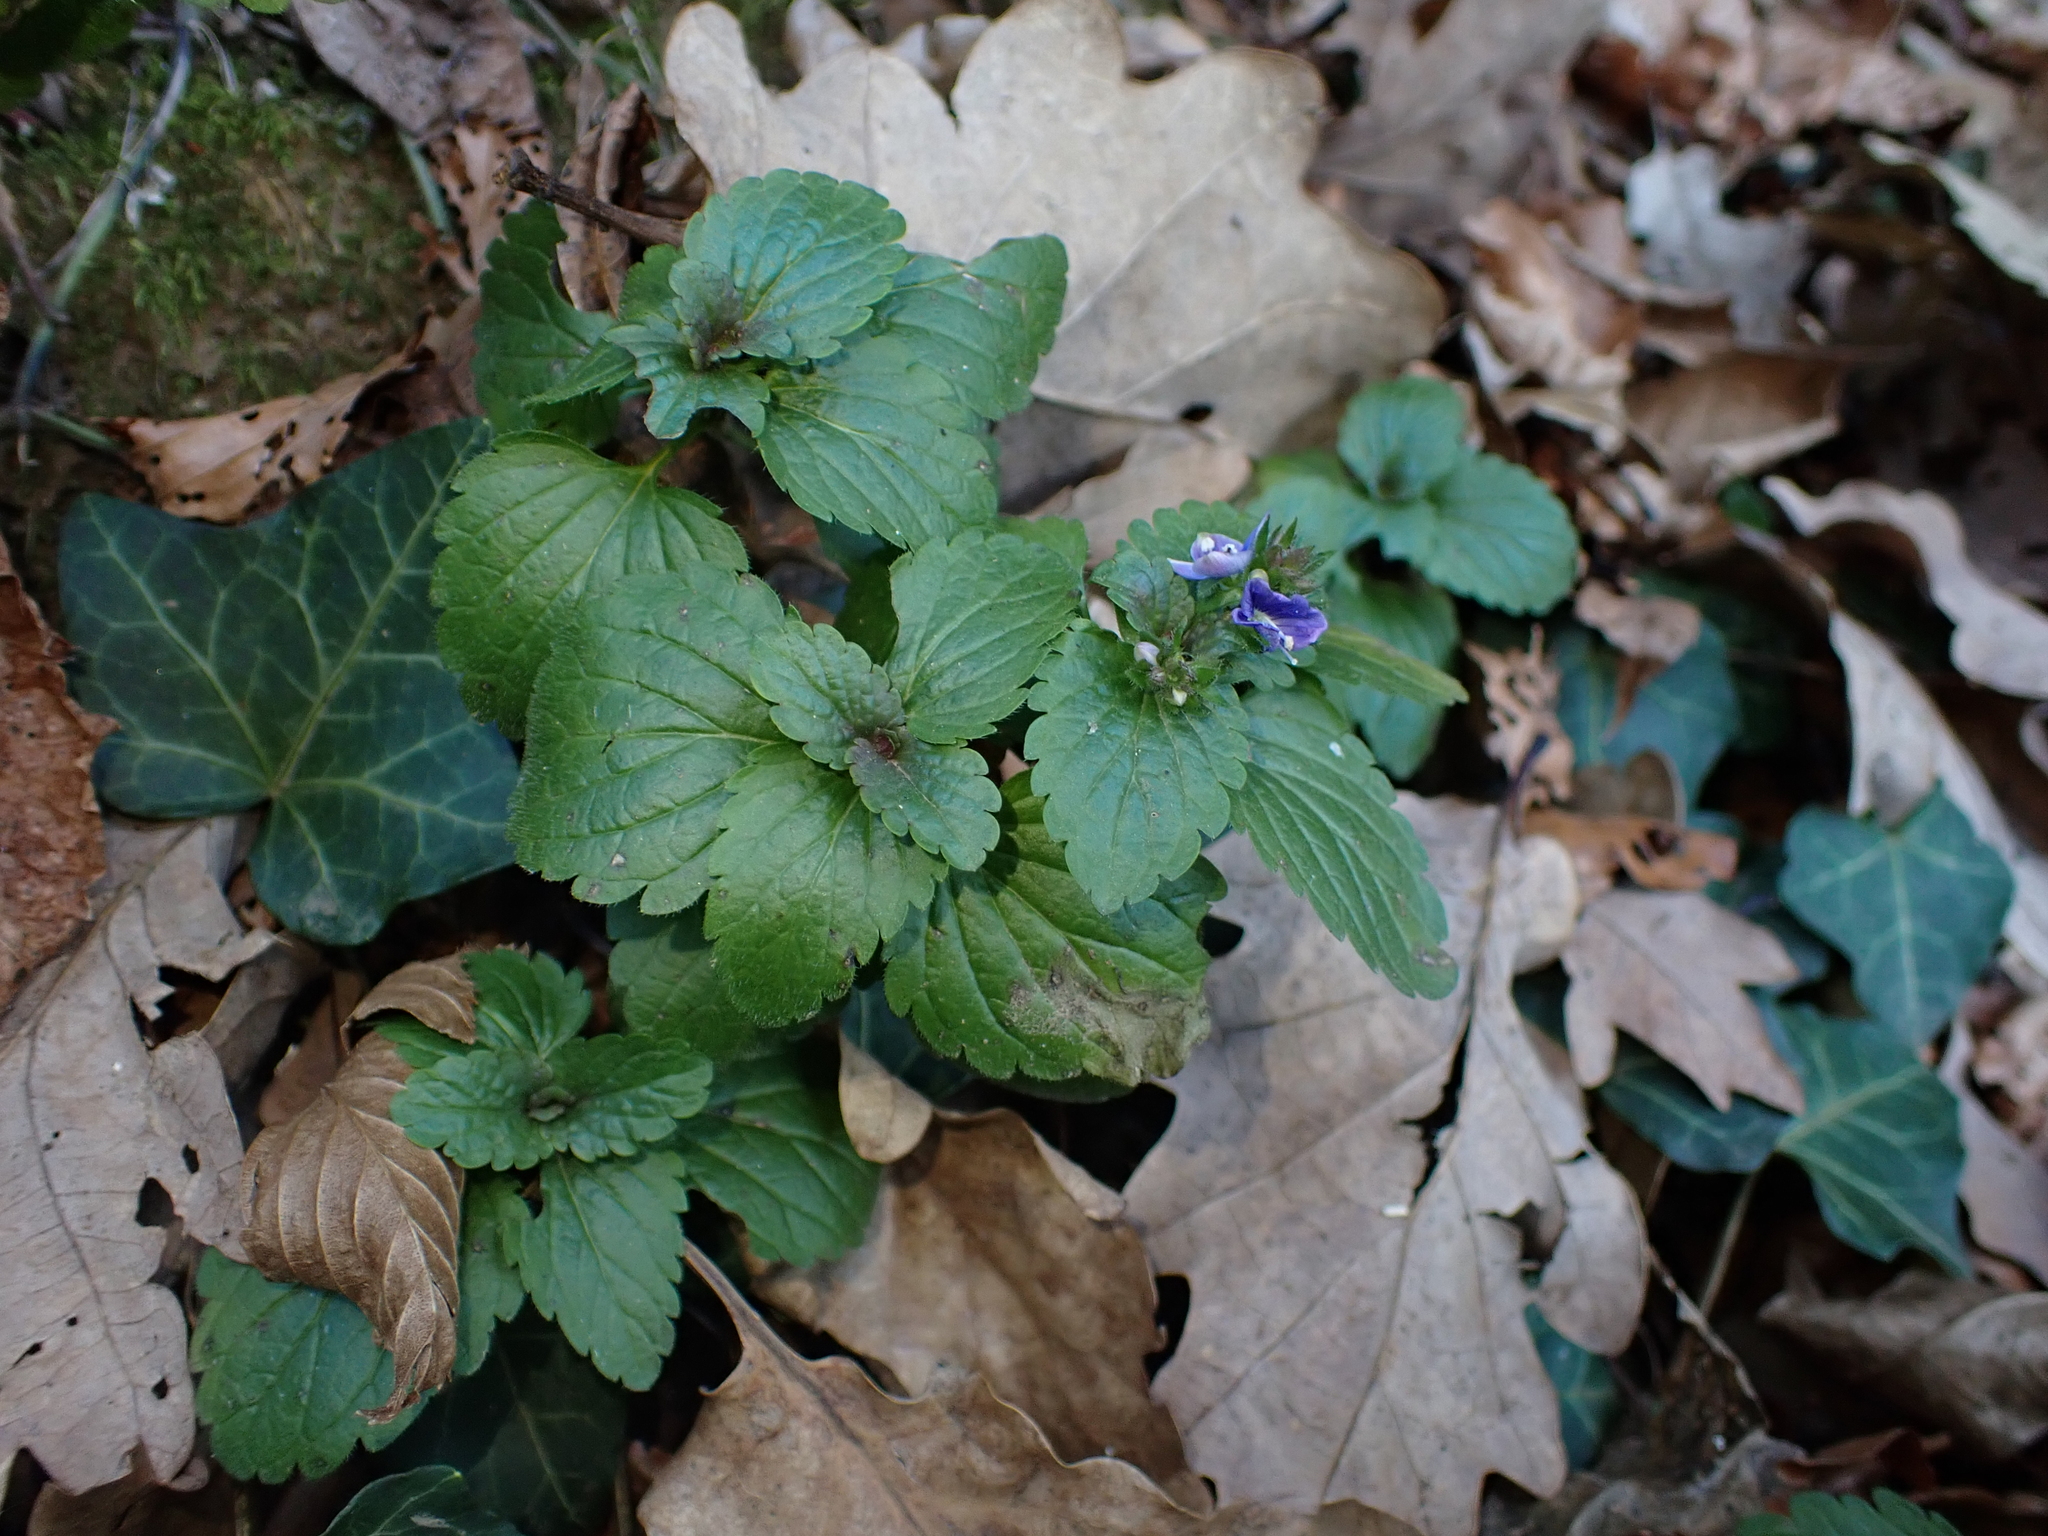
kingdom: Plantae
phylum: Tracheophyta
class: Magnoliopsida
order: Lamiales
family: Plantaginaceae
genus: Veronica
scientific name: Veronica chamaedrys
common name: Germander speedwell
